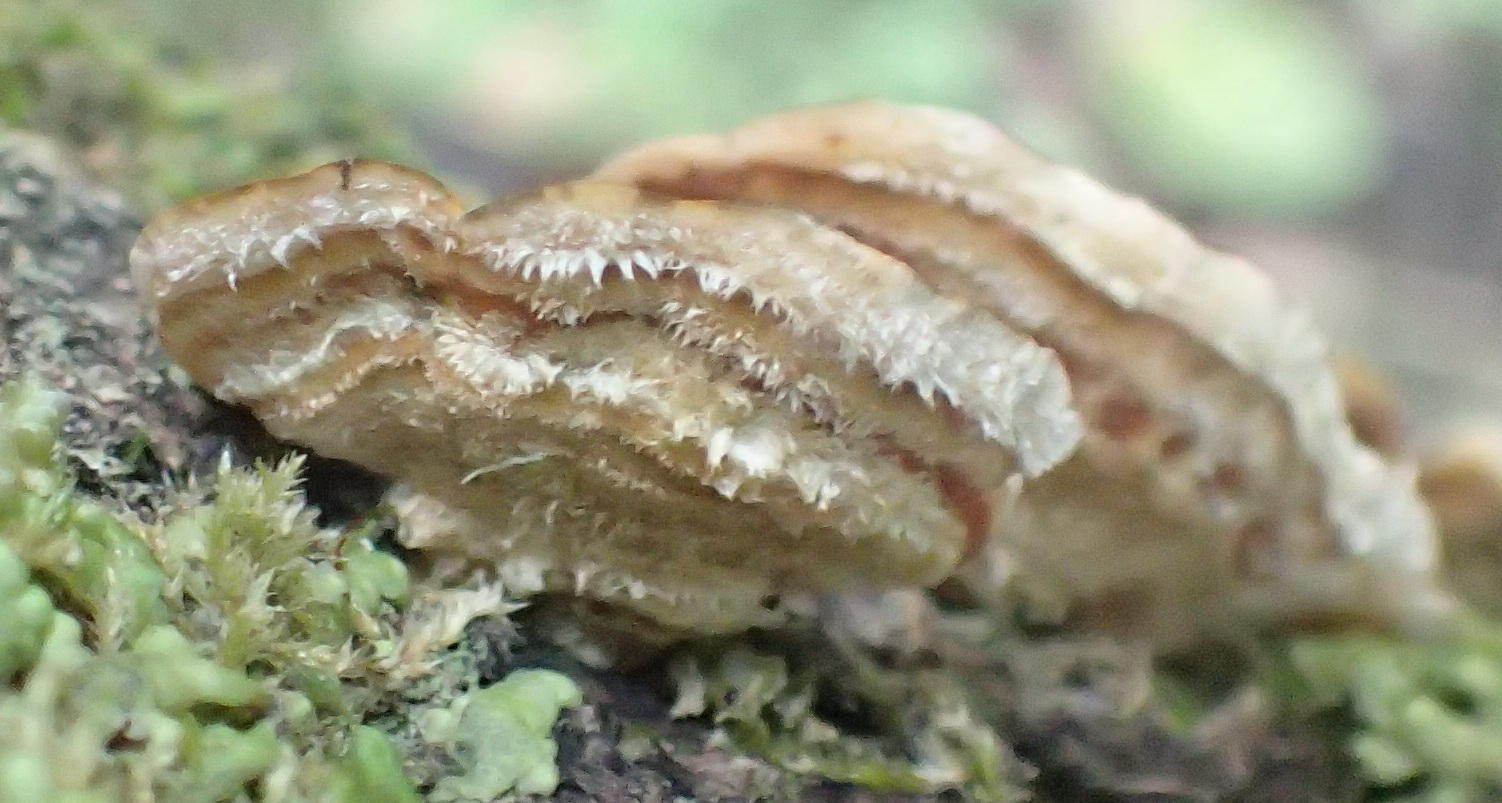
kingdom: Fungi
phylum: Basidiomycota
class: Agaricomycetes
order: Russulales
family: Stereaceae
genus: Stereum
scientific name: Stereum hirsutum
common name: Hairy curtain crust
